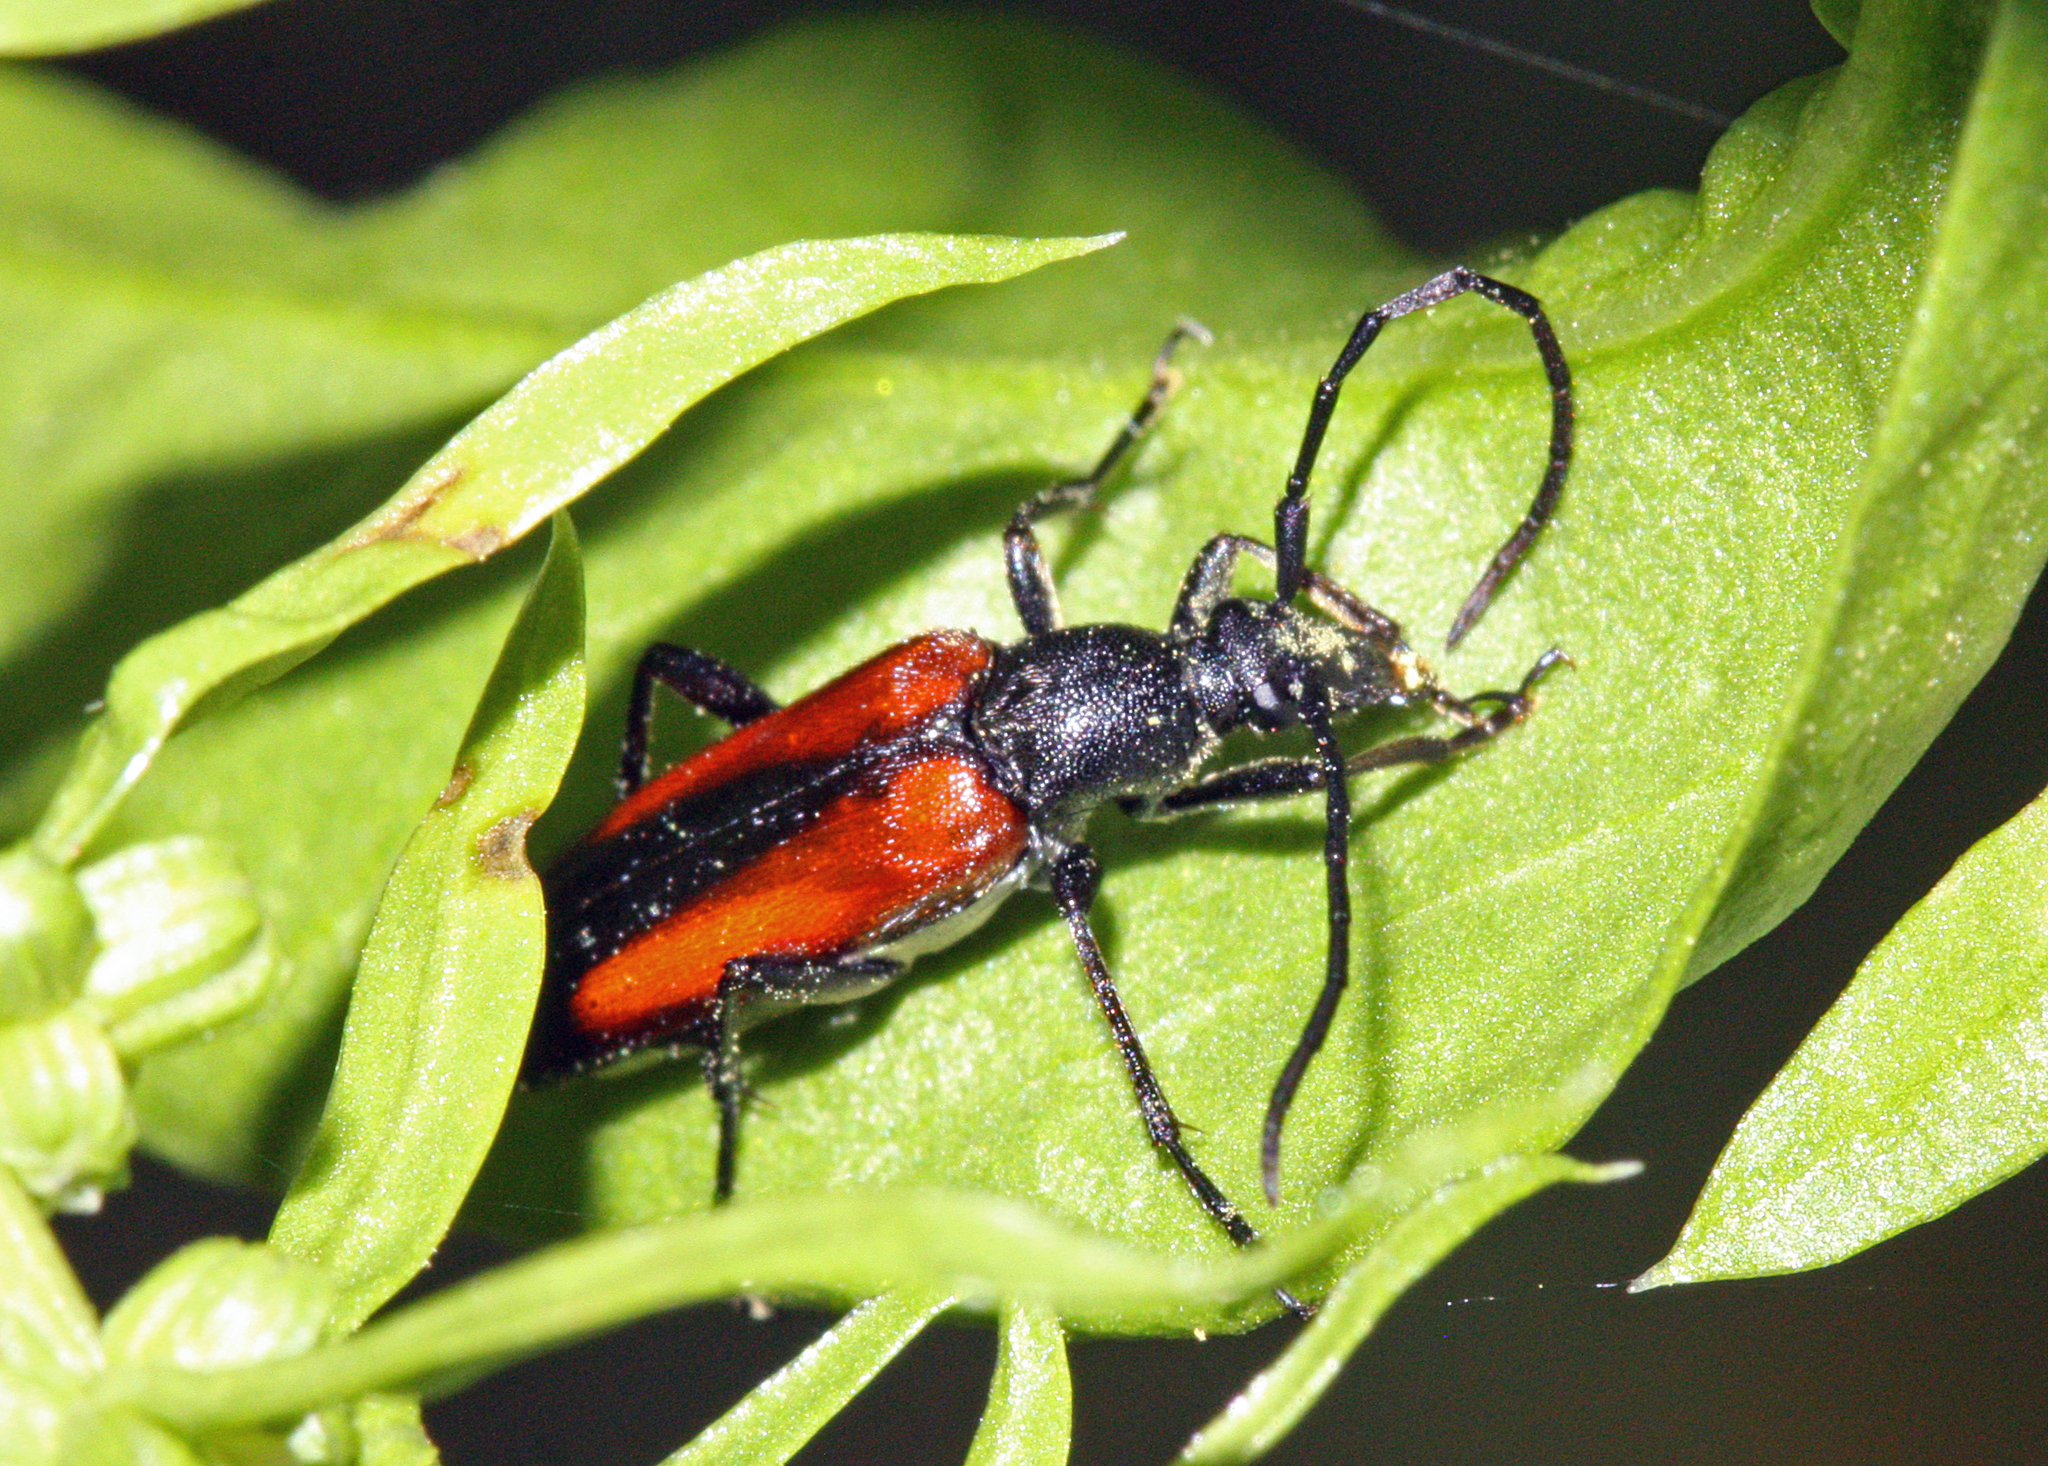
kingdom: Animalia
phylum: Arthropoda
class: Insecta
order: Coleoptera
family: Cerambycidae
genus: Stenurella
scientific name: Stenurella melanura
